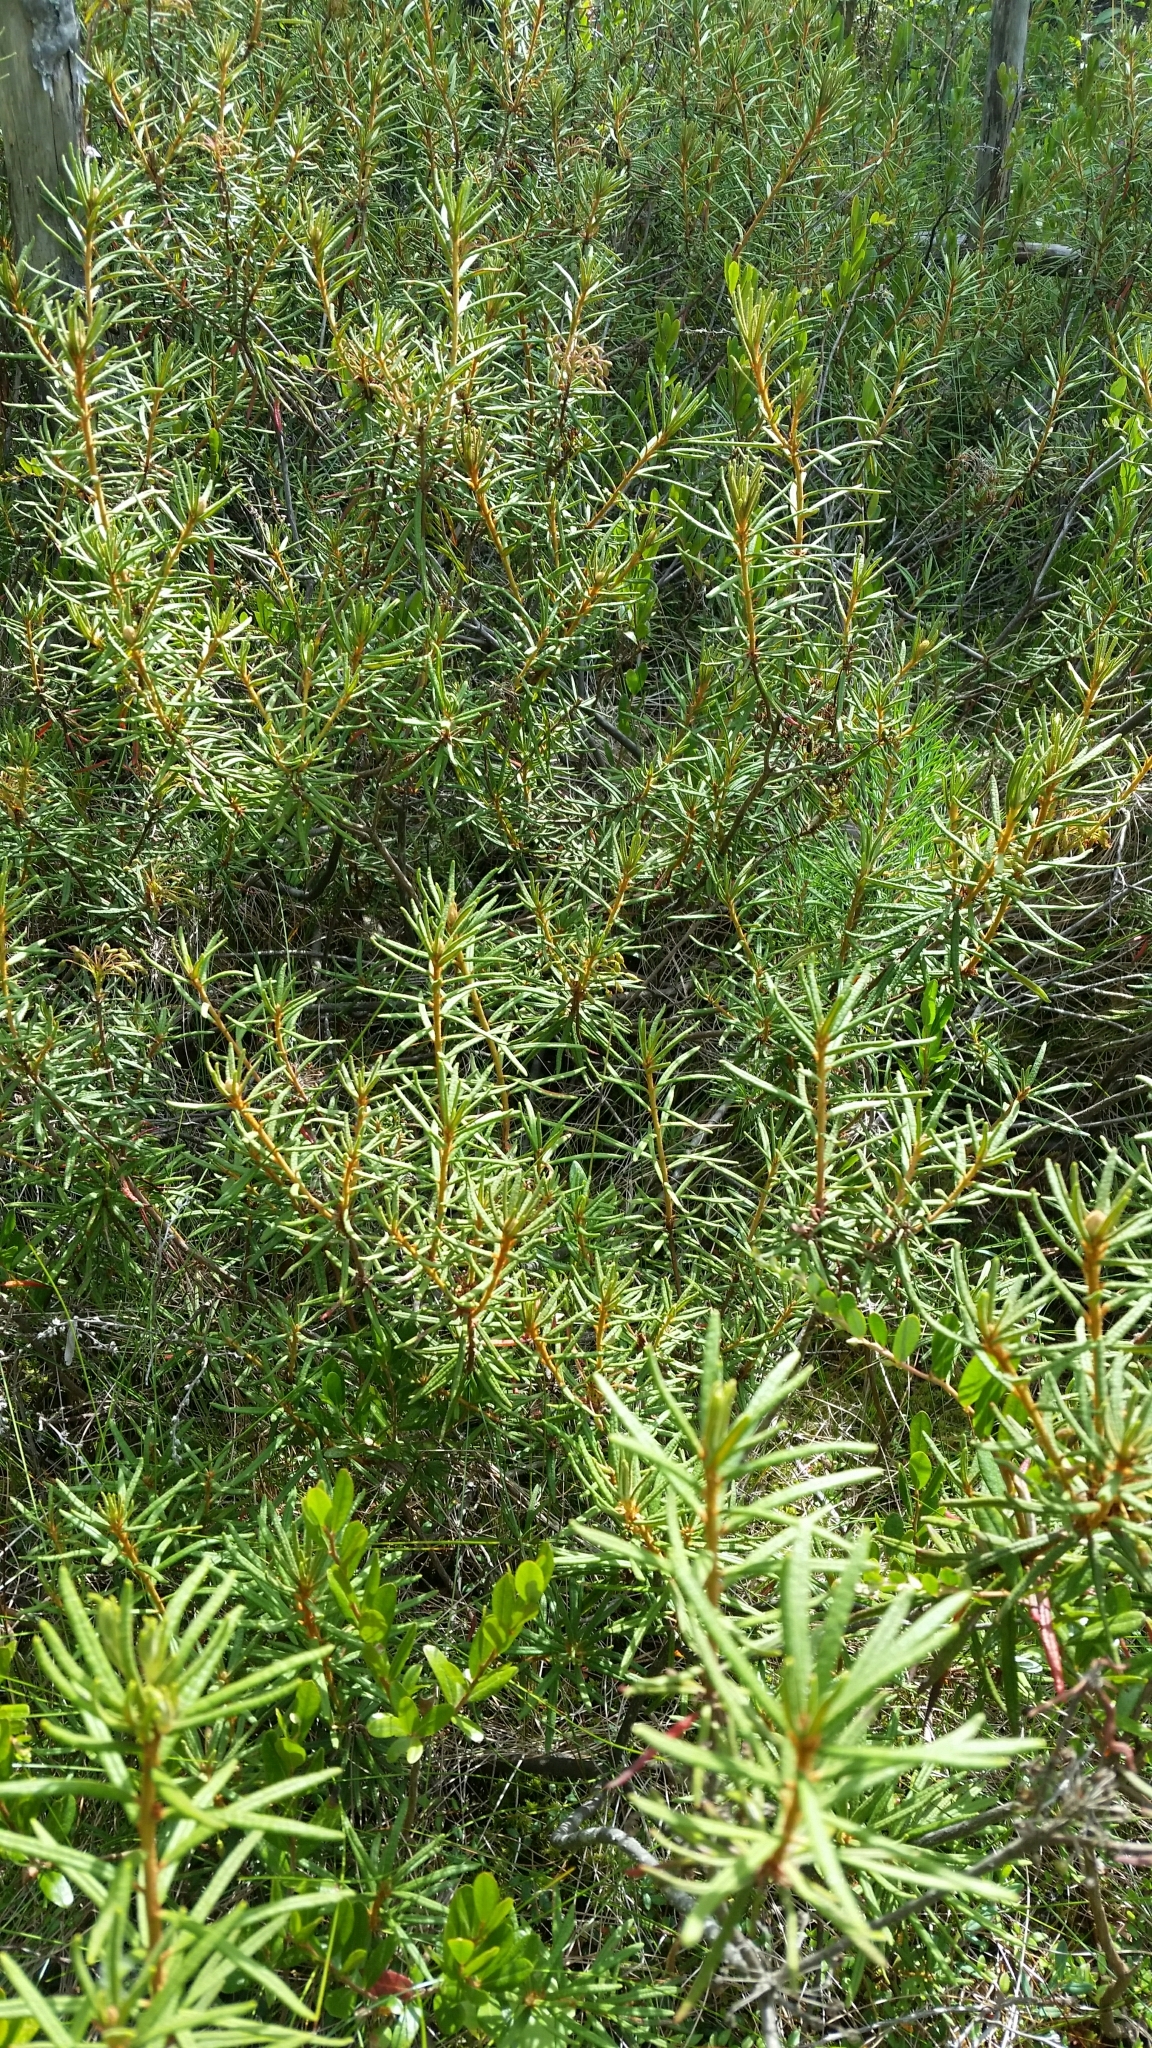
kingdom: Plantae
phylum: Tracheophyta
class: Magnoliopsida
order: Ericales
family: Ericaceae
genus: Rhododendron
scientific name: Rhododendron tomentosum
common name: Marsh labrador tea
